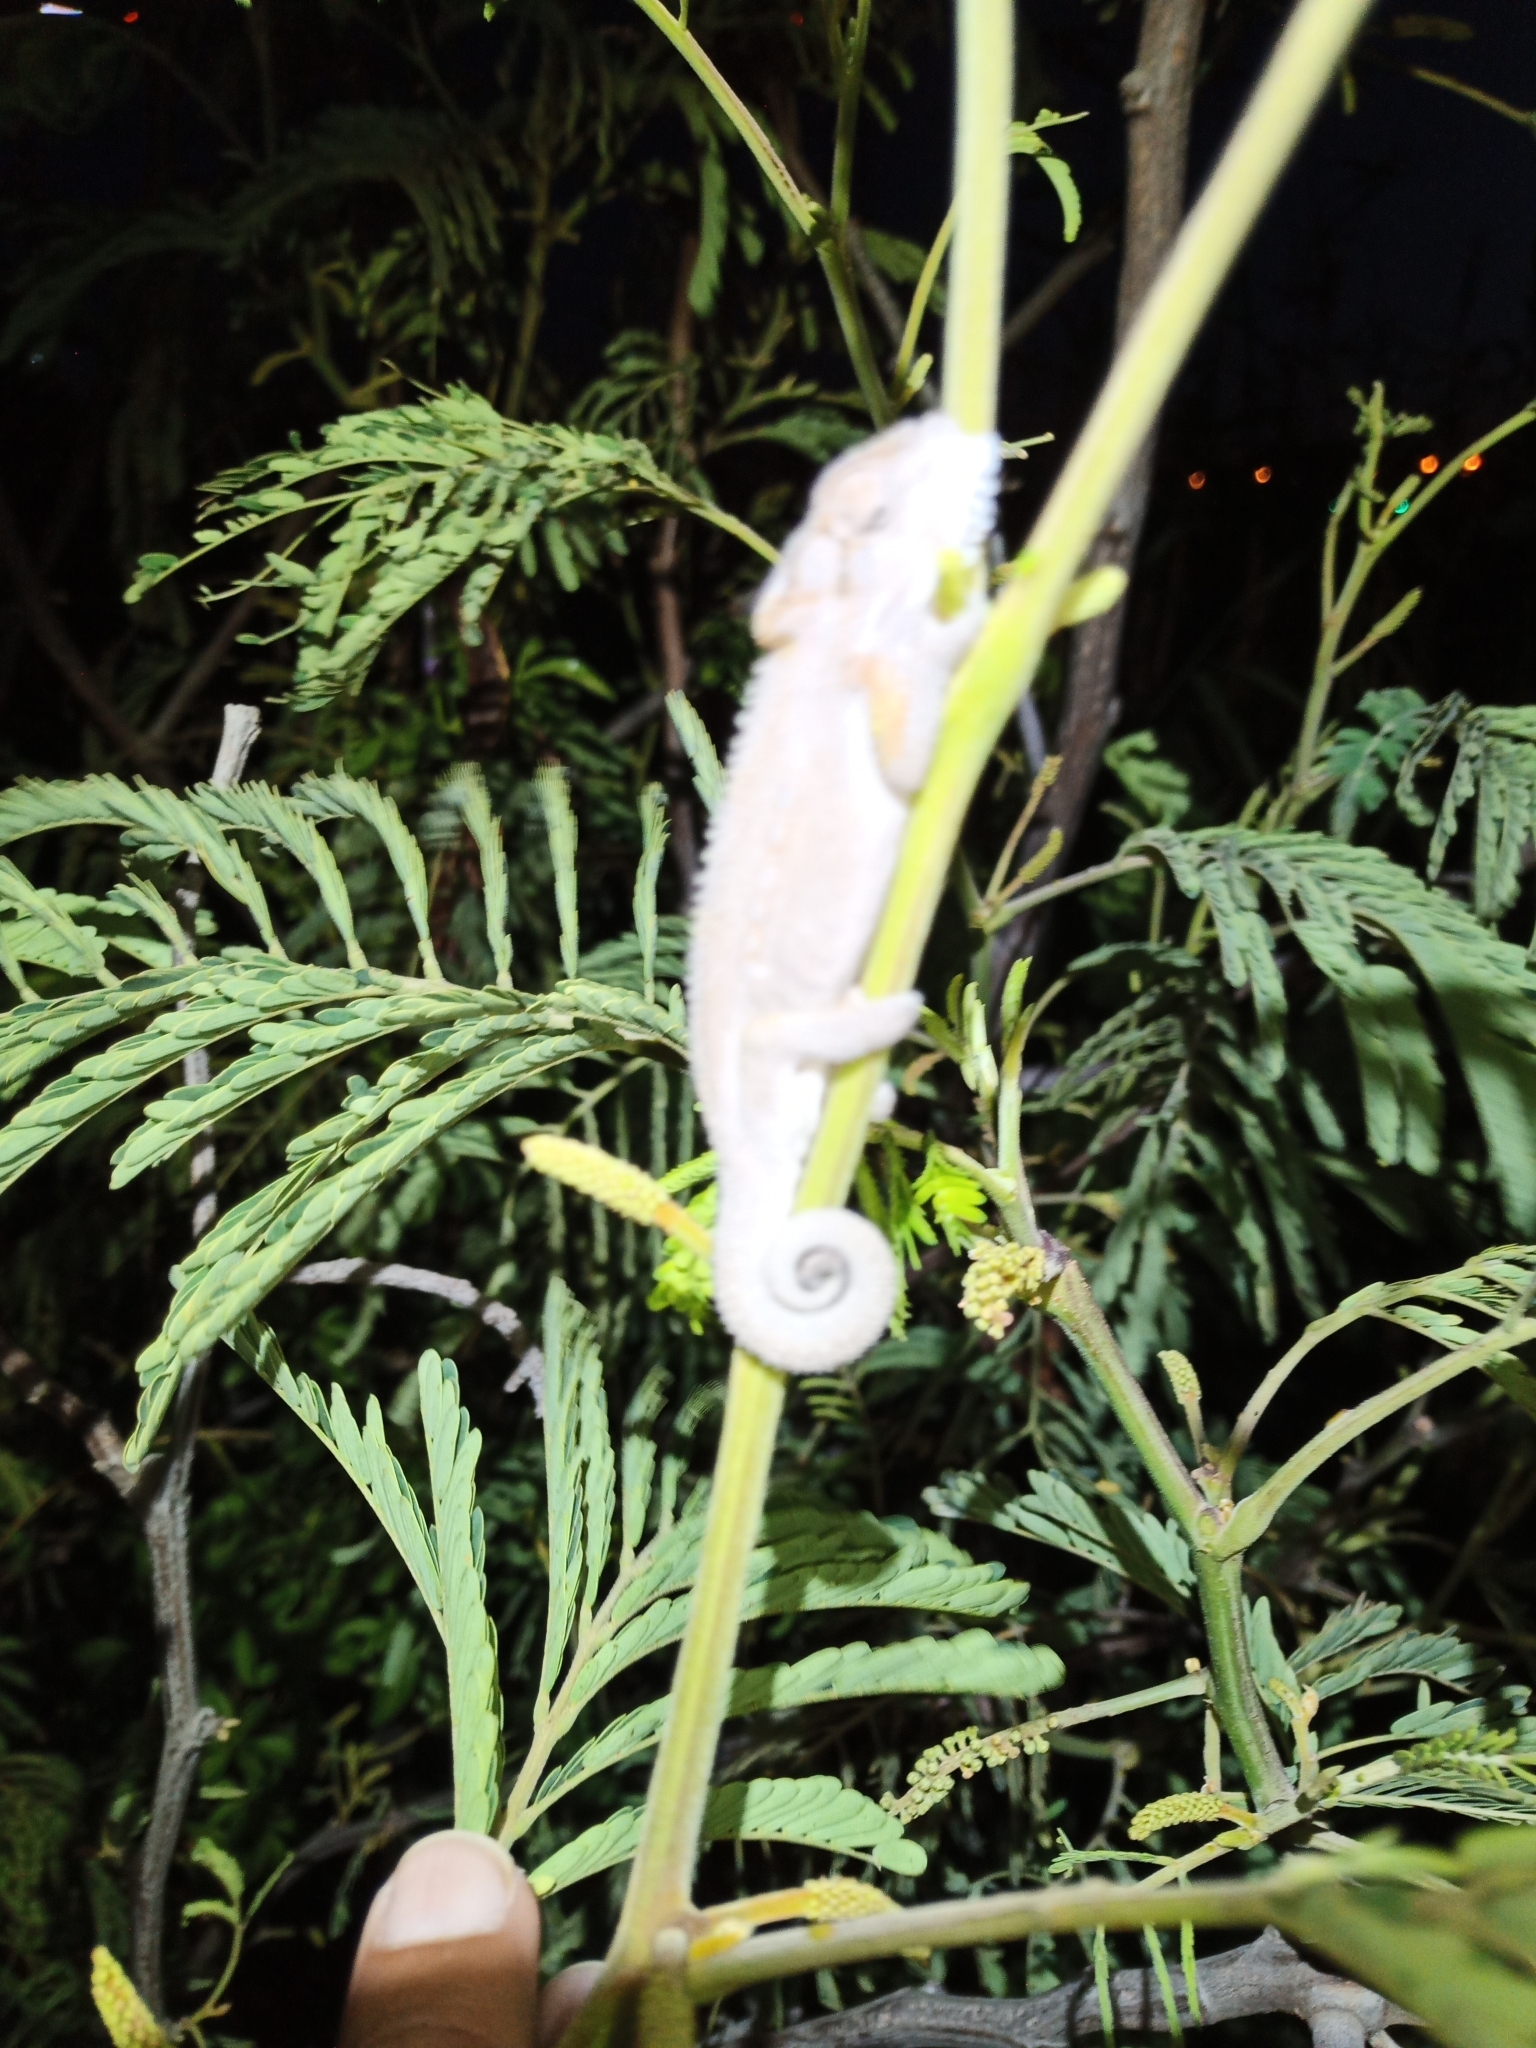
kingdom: Animalia
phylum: Chordata
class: Squamata
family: Chamaeleonidae
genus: Bradypodion
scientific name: Bradypodion pumilum
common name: Cape dwarf chameleon
